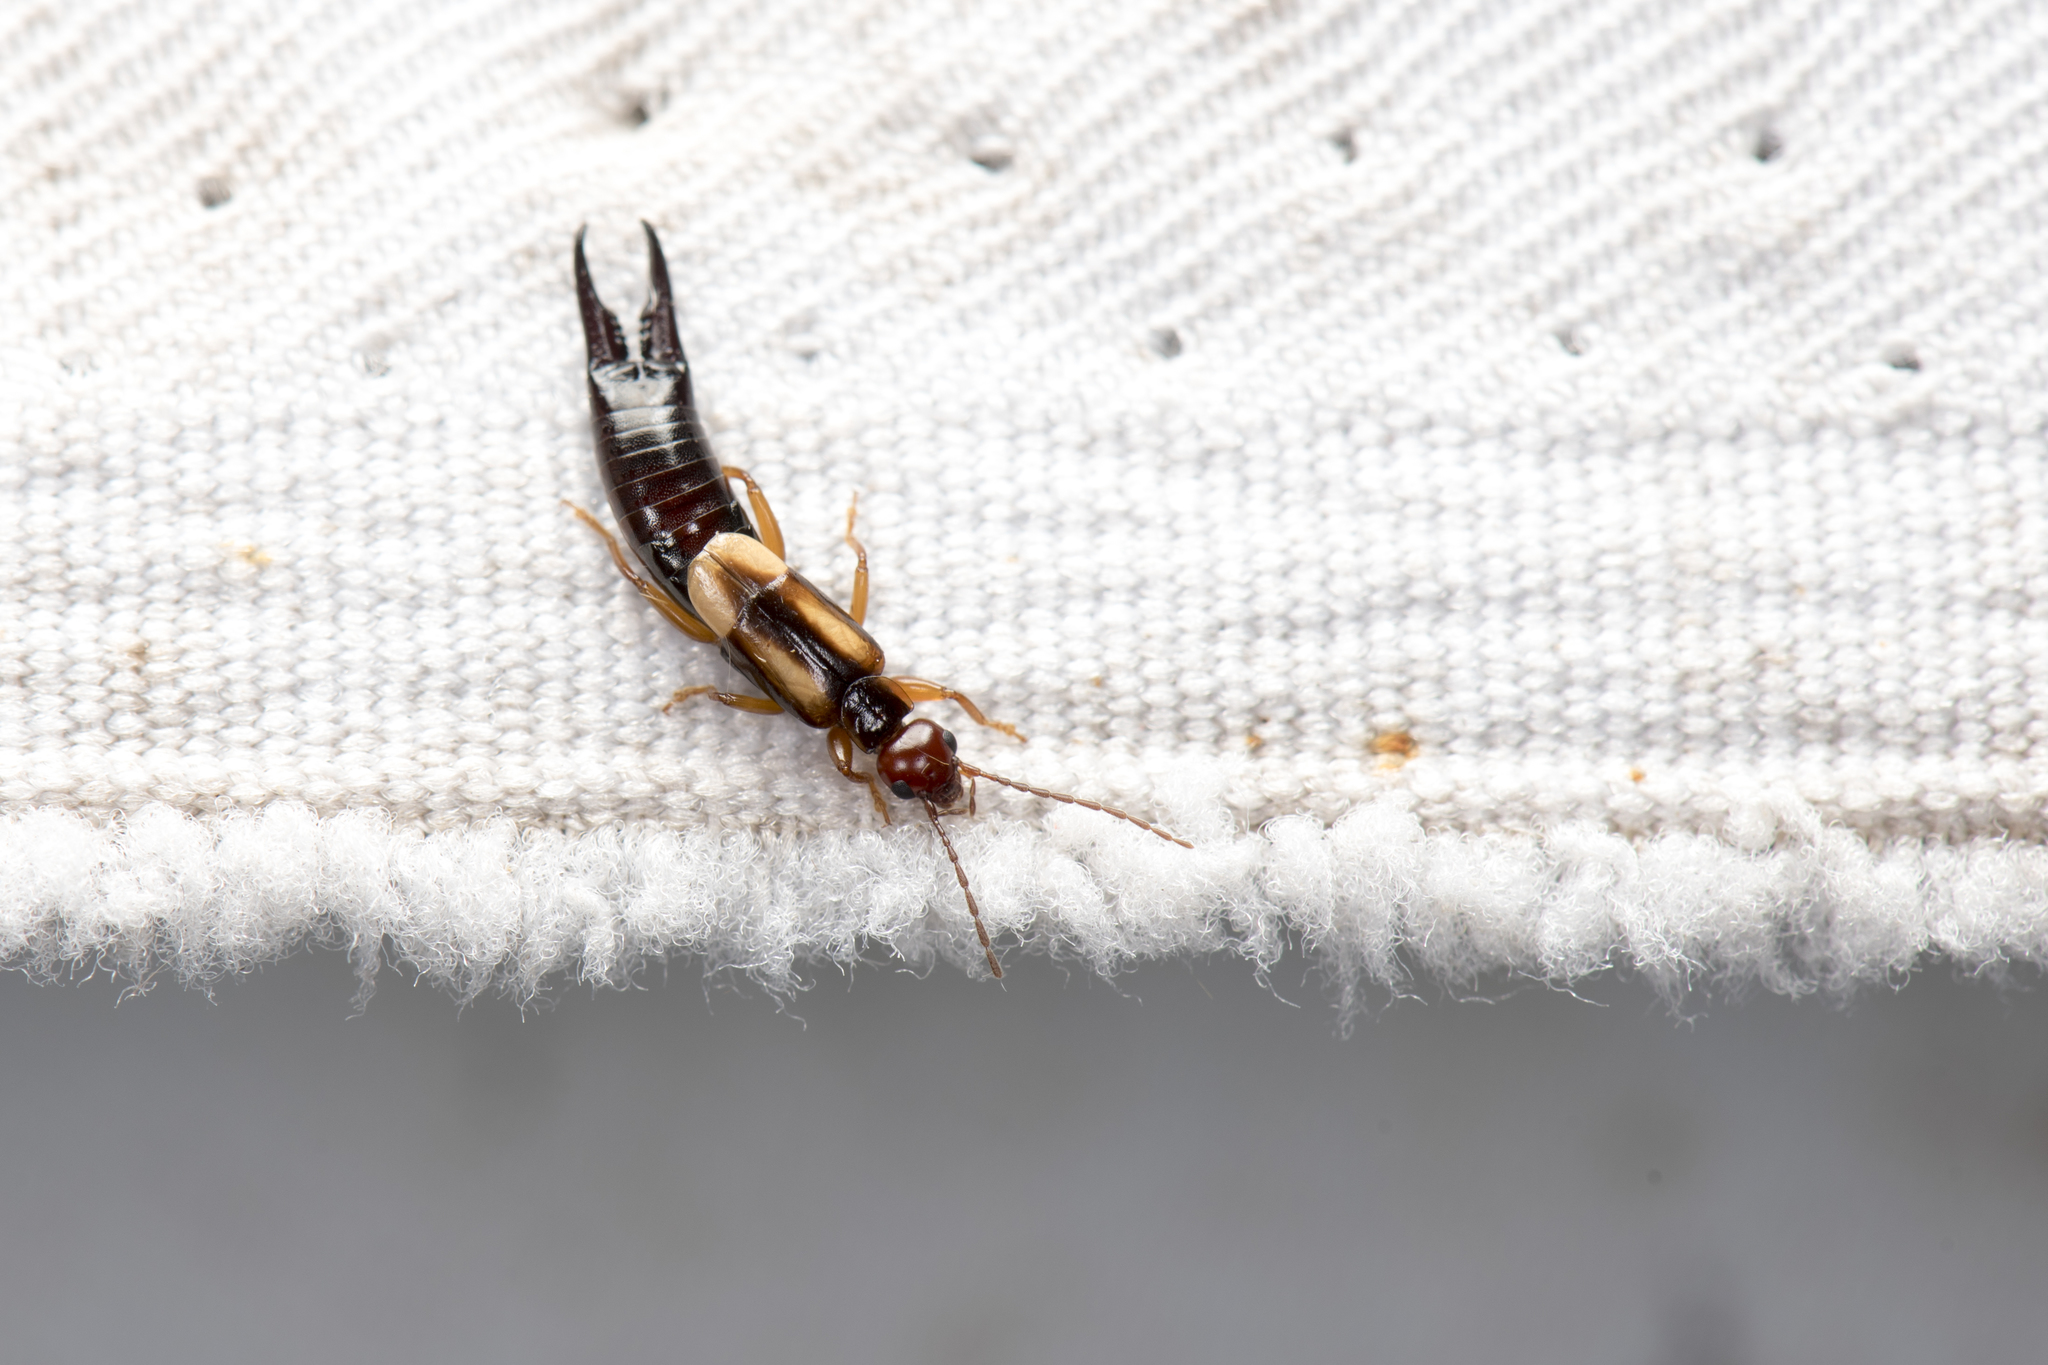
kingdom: Animalia
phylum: Arthropoda
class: Insecta
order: Dermaptera
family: Forficulidae
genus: Forficula
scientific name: Forficula greeni
